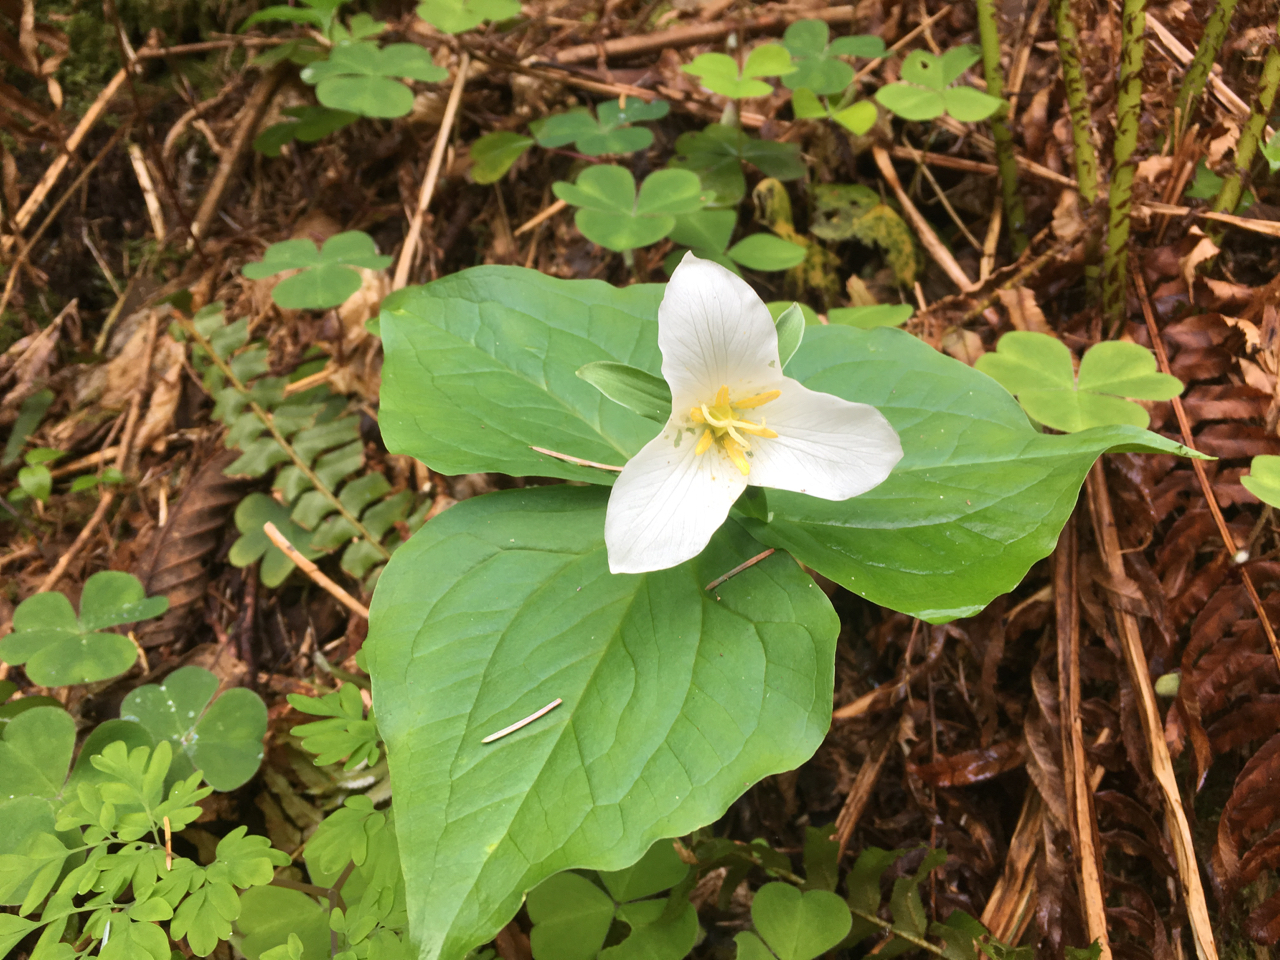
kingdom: Plantae
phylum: Tracheophyta
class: Liliopsida
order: Liliales
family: Melanthiaceae
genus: Trillium
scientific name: Trillium ovatum
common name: Pacific trillium
